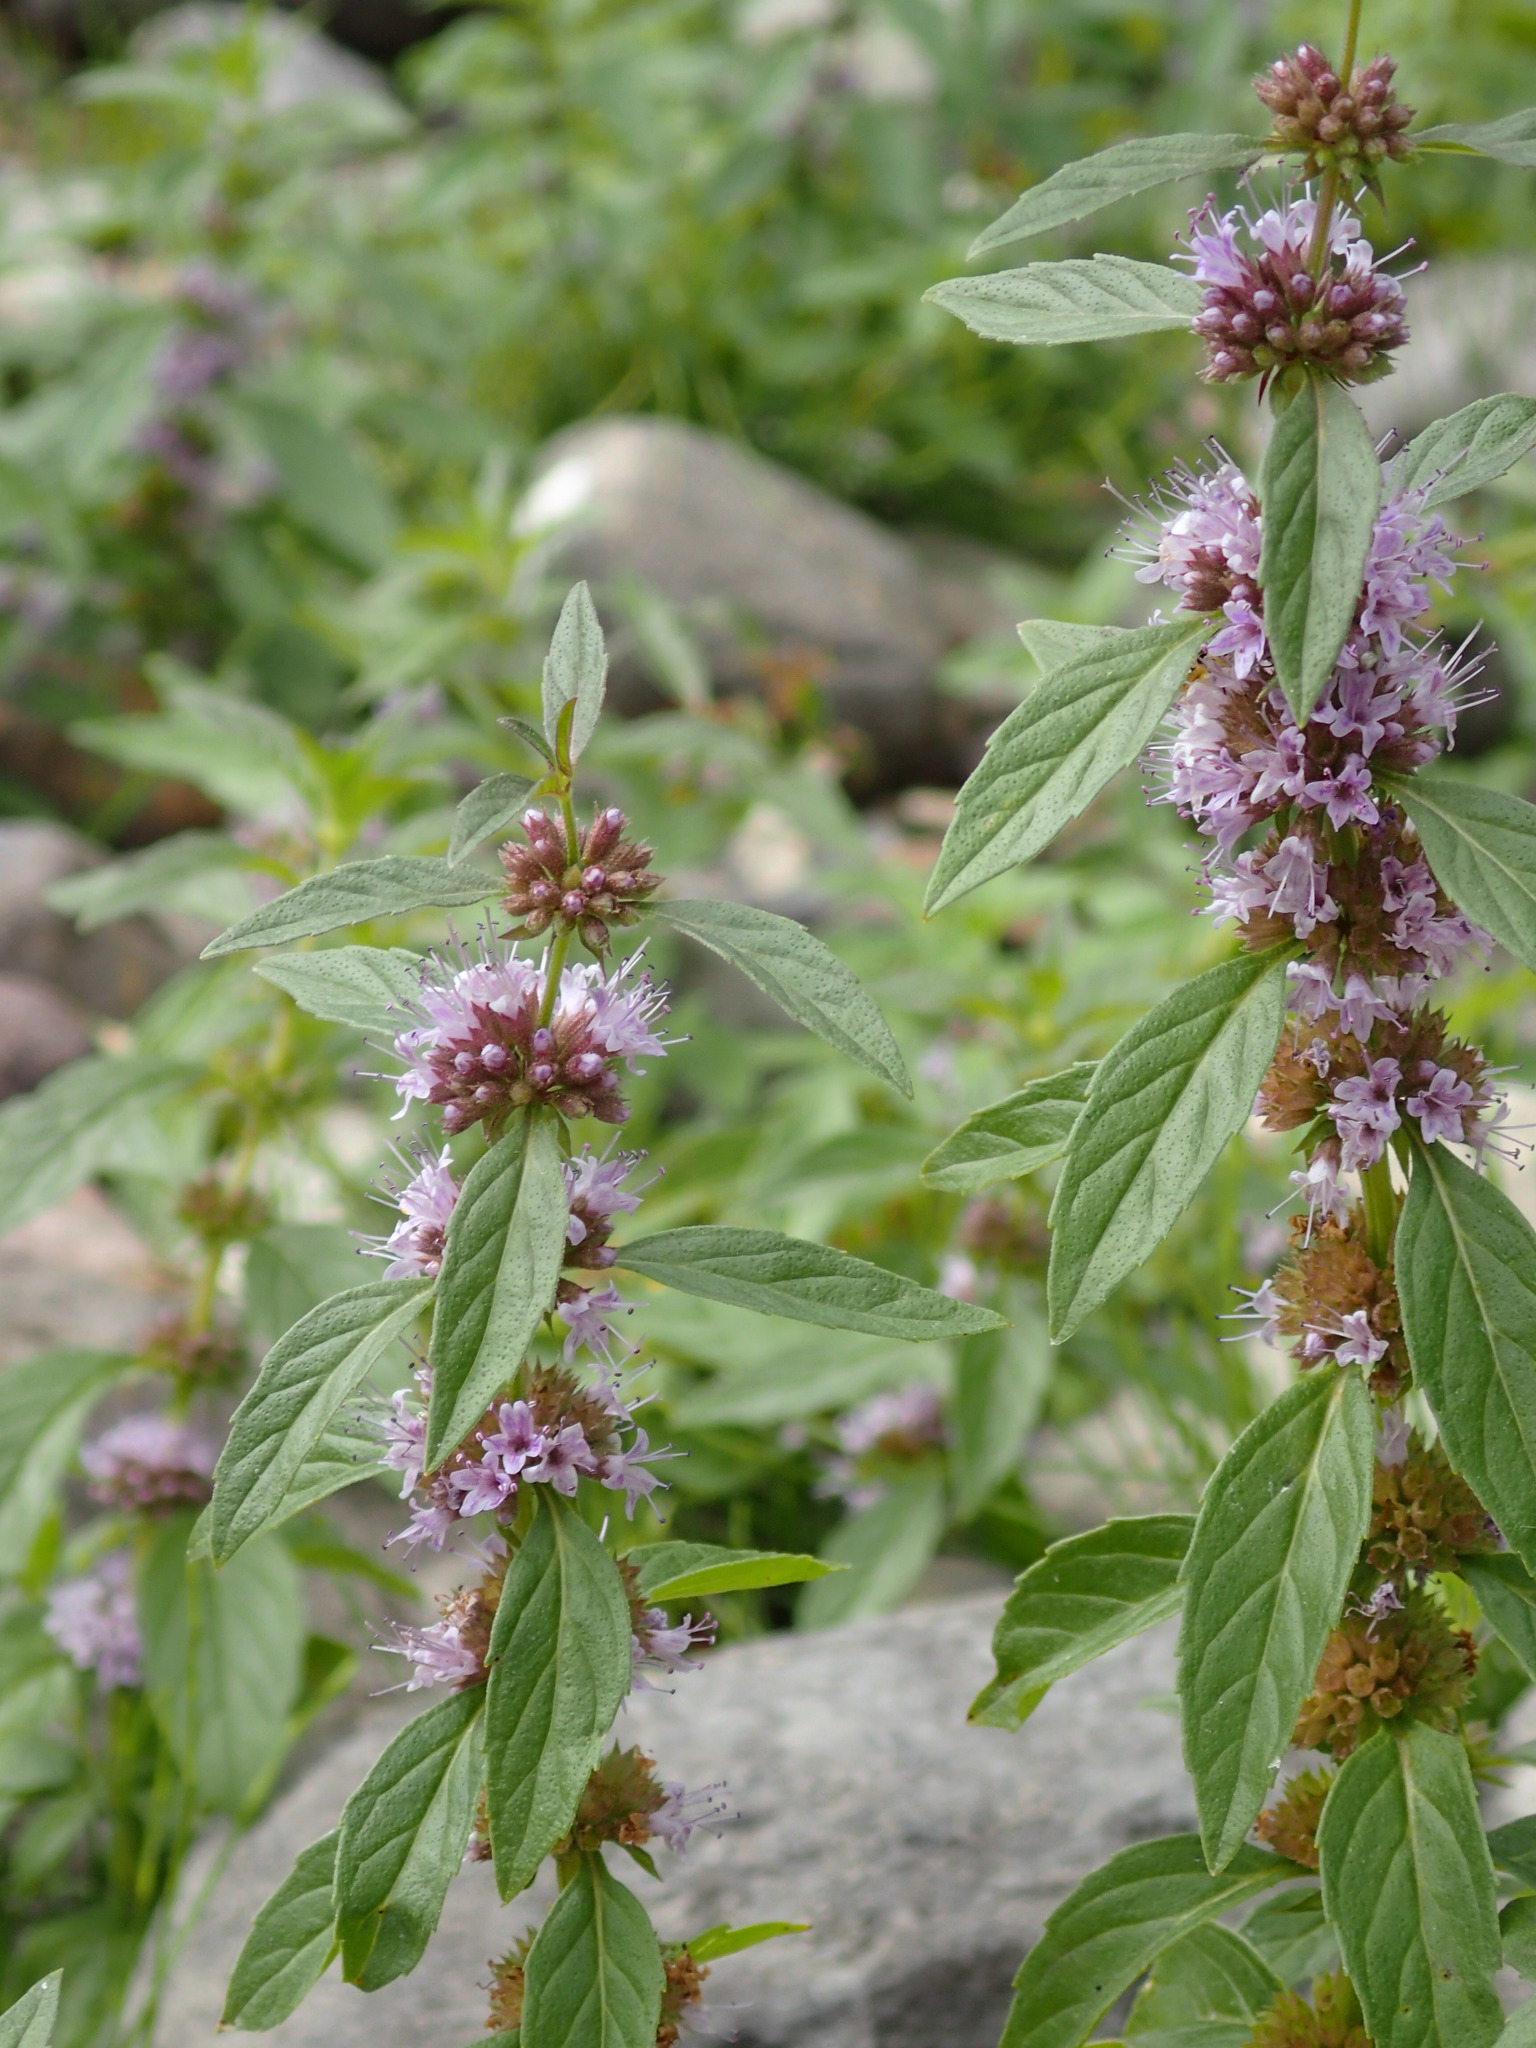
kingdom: Plantae
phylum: Tracheophyta
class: Magnoliopsida
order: Lamiales
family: Lamiaceae
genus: Mentha
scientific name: Mentha canadensis
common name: American corn mint
